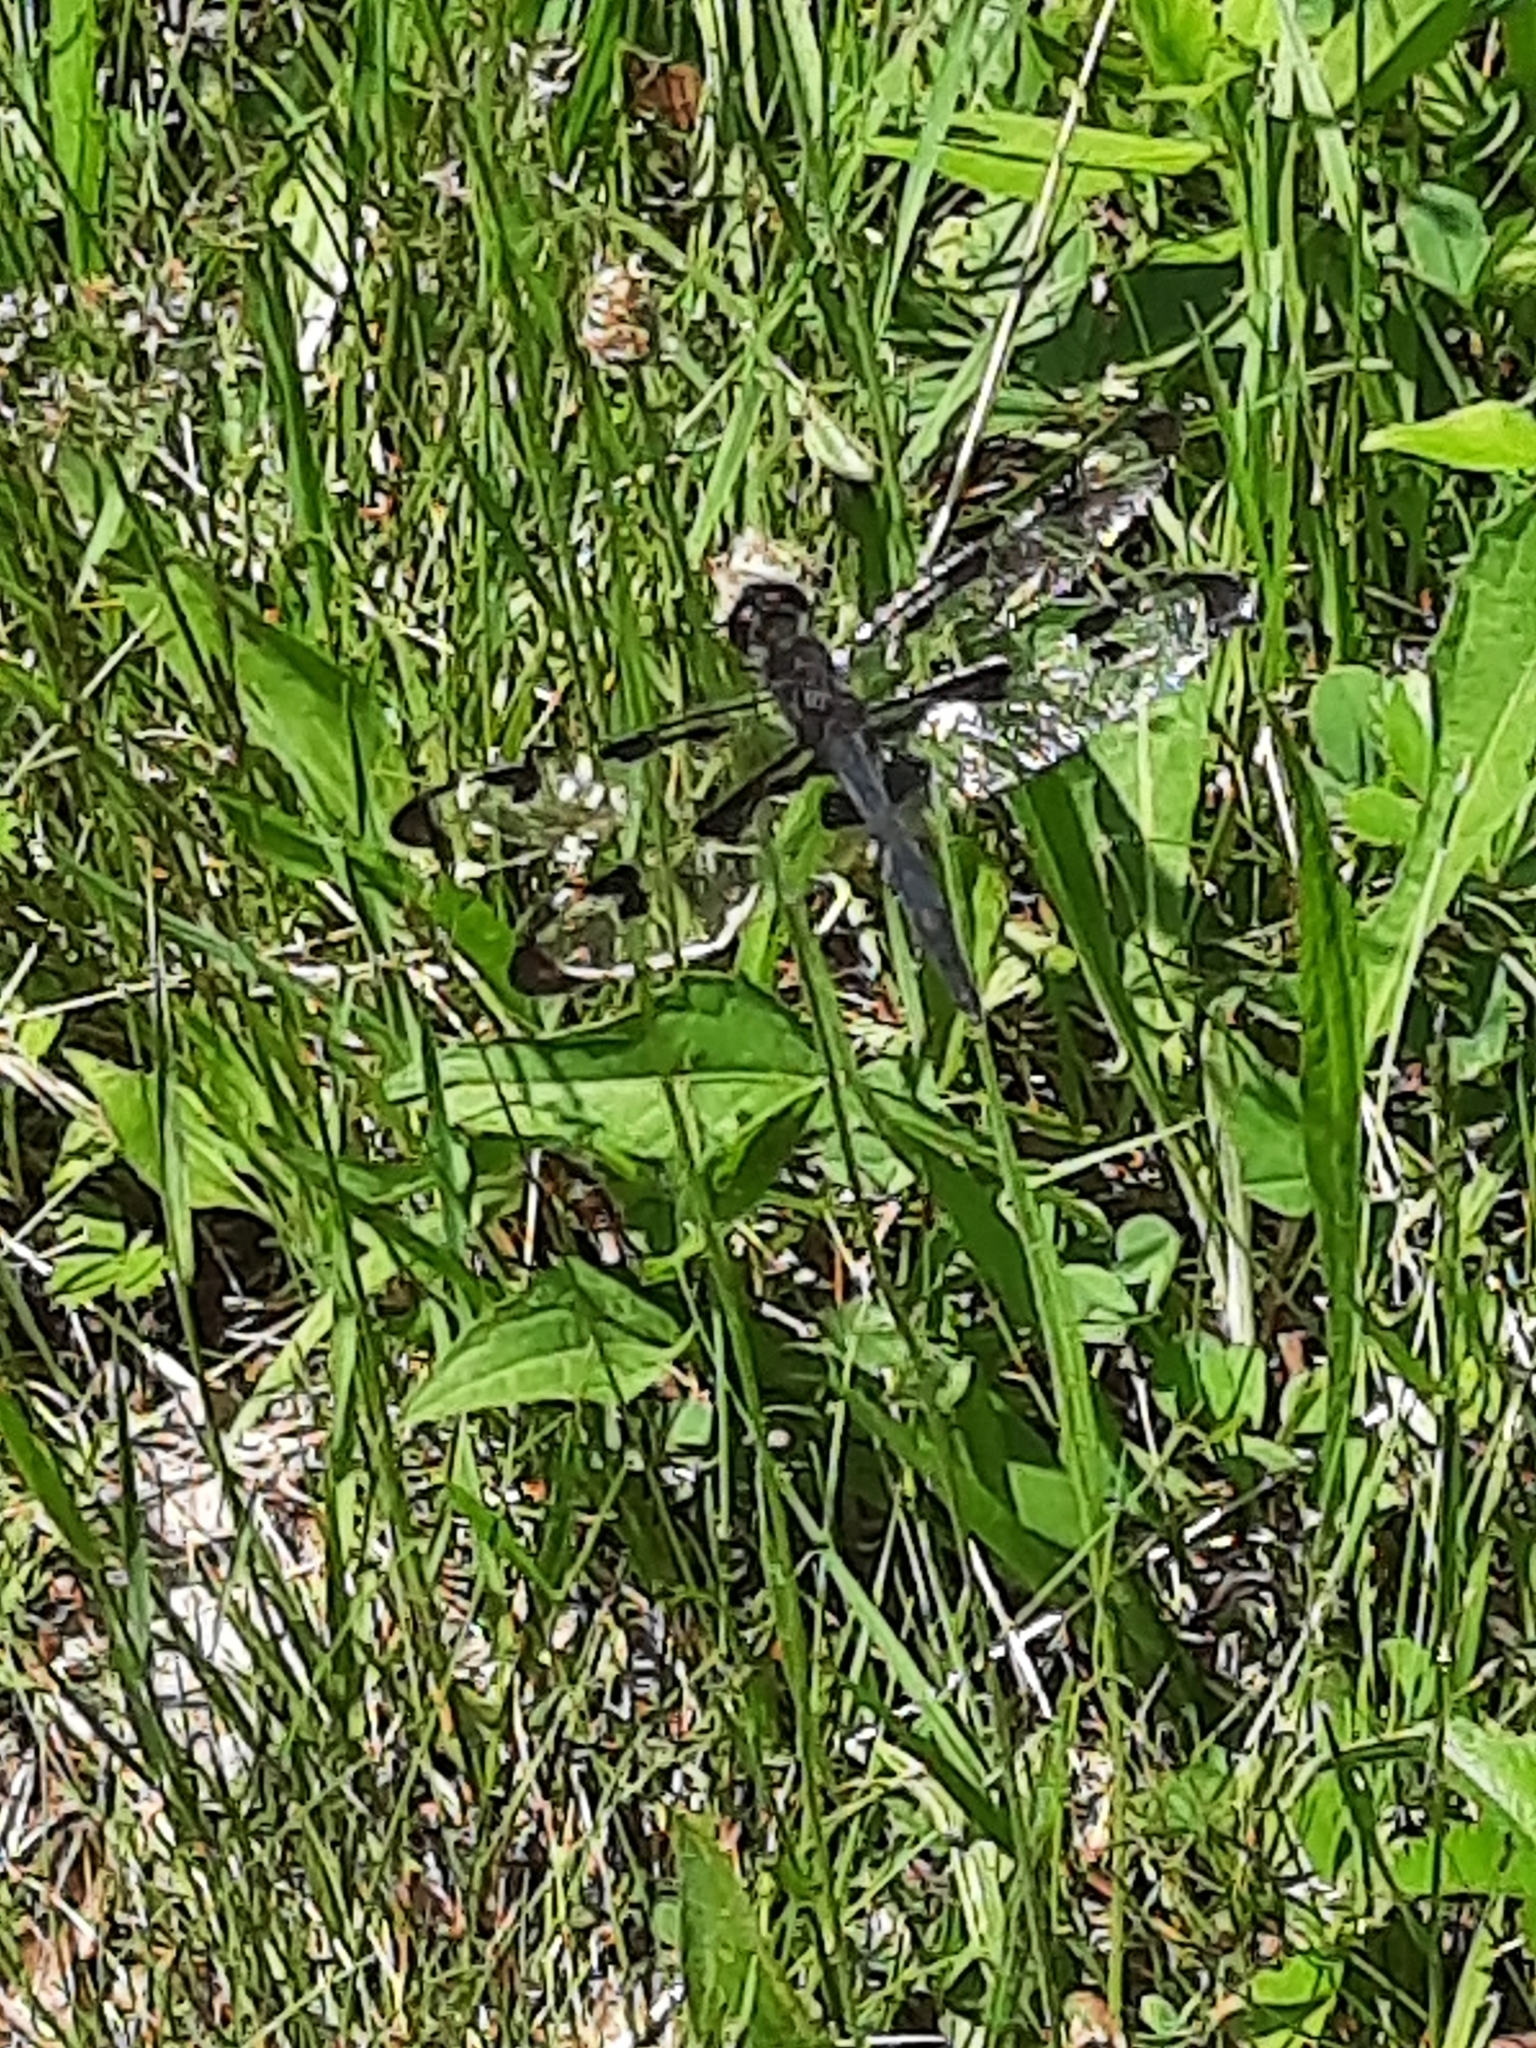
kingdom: Animalia
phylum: Arthropoda
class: Insecta
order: Odonata
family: Libellulidae
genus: Celithemis
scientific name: Celithemis fasciata
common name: Banded pennant
